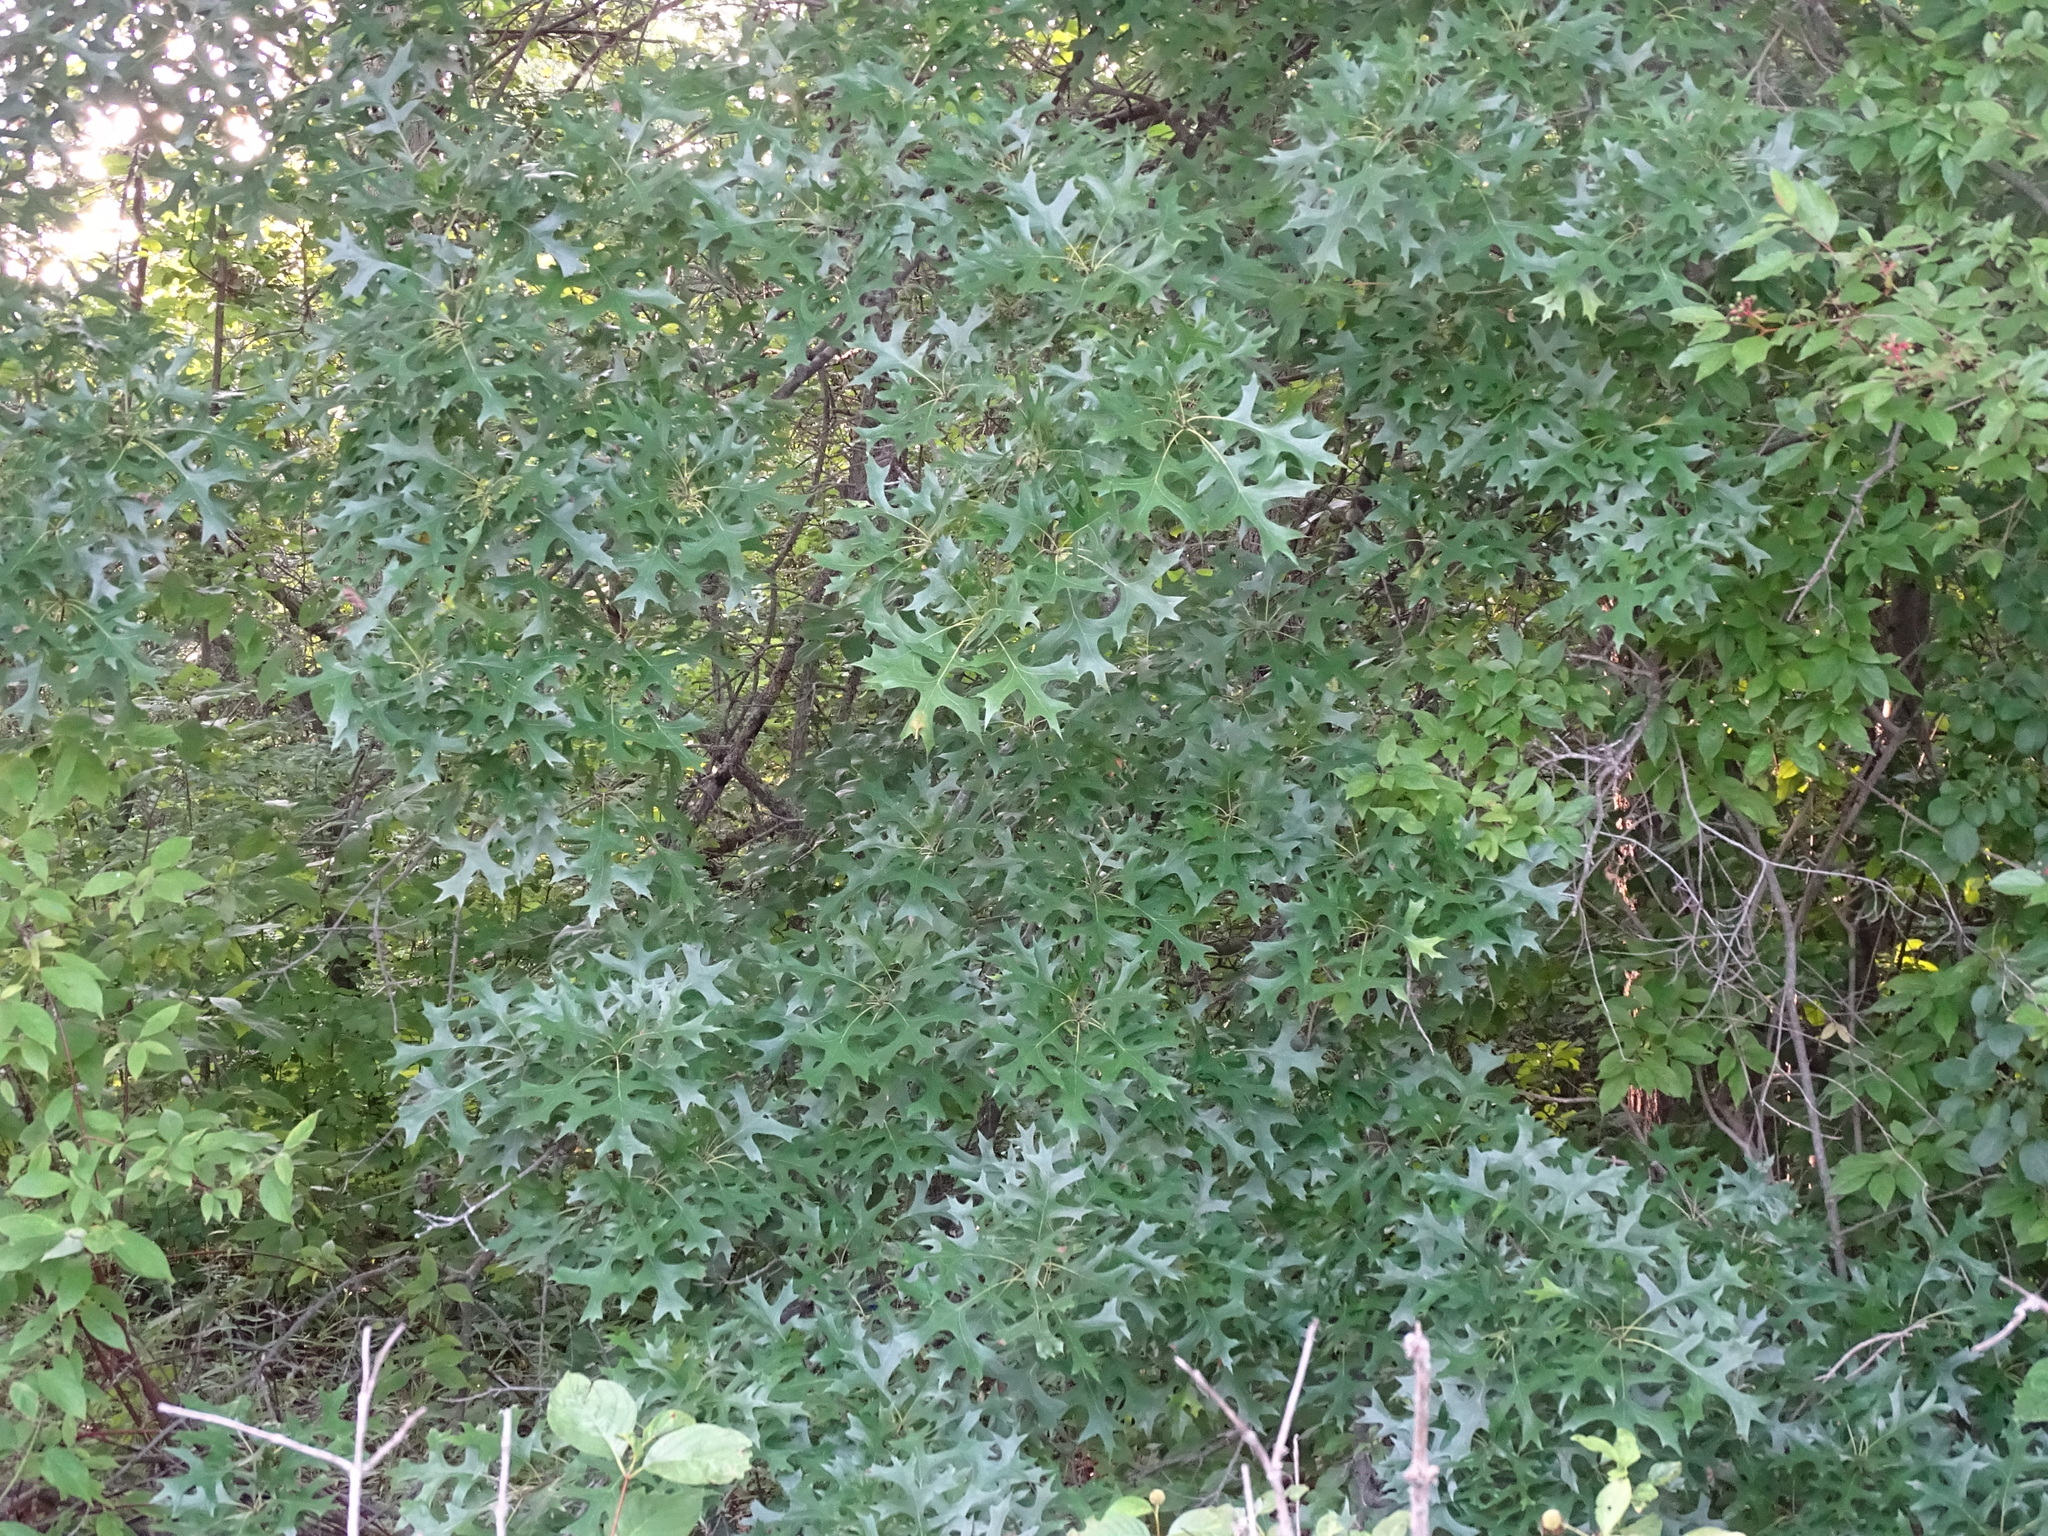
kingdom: Plantae
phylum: Tracheophyta
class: Magnoliopsida
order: Fagales
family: Fagaceae
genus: Quercus
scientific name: Quercus palustris
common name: Pin oak
